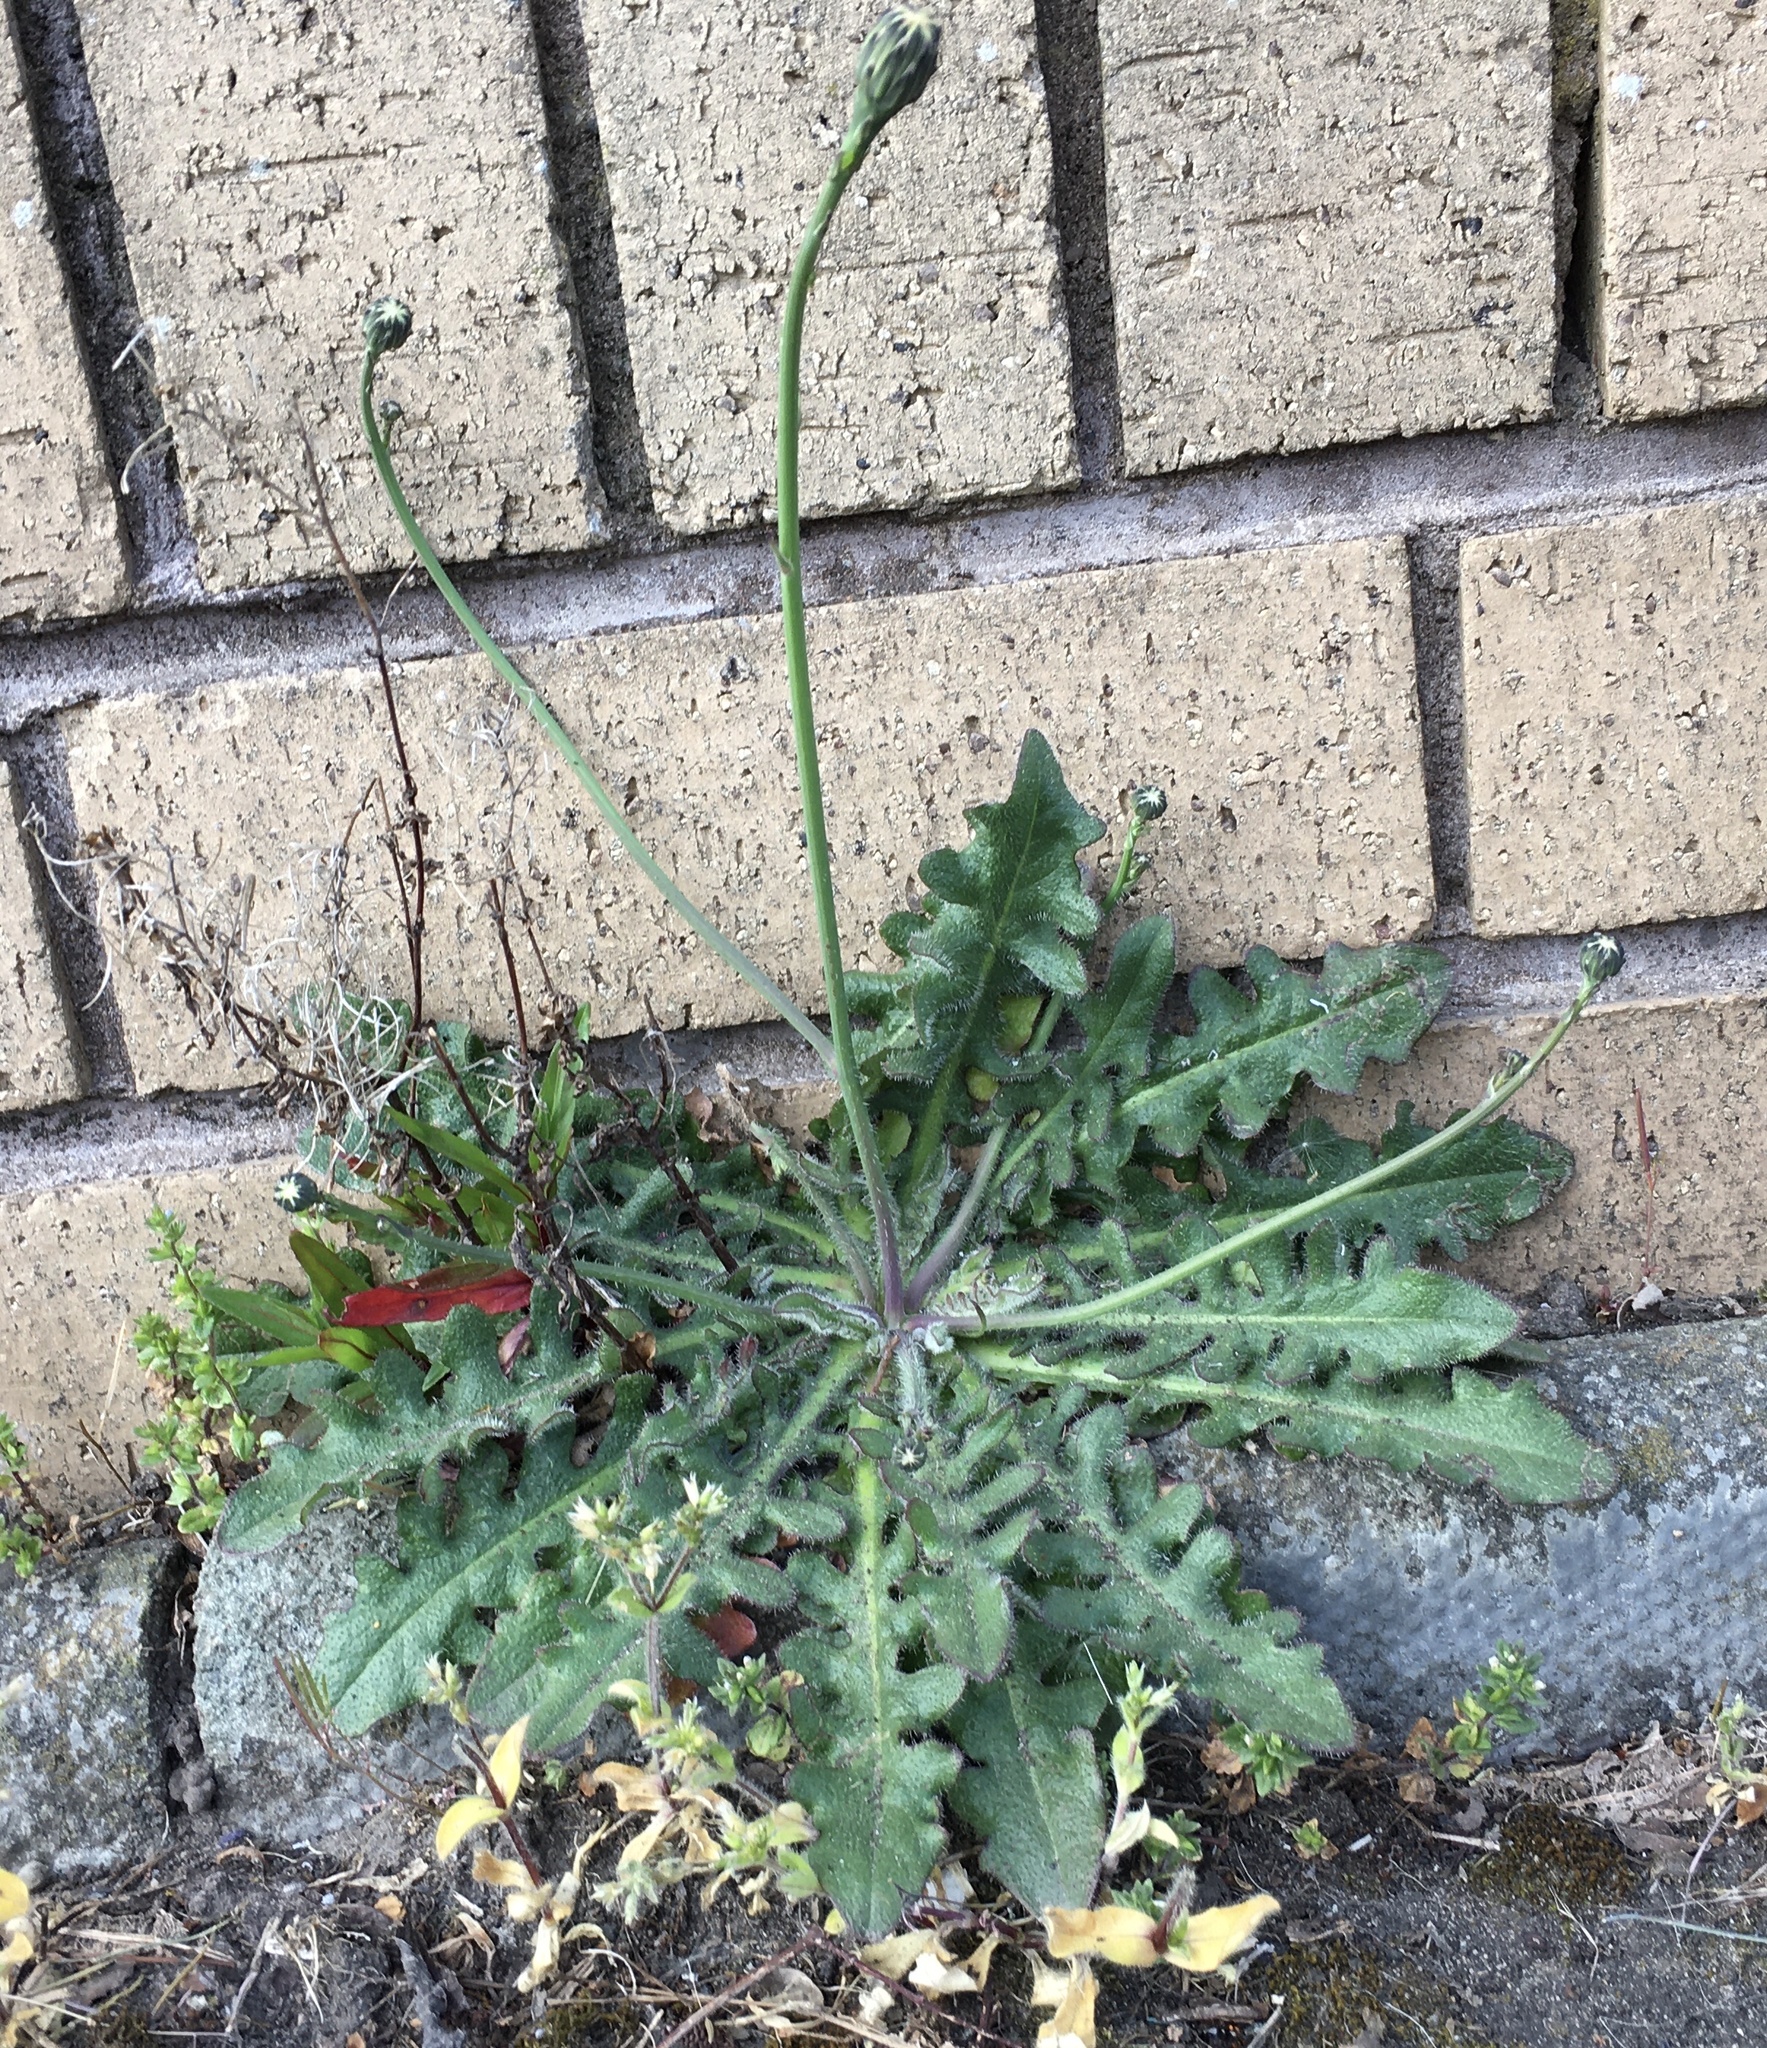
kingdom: Plantae
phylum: Tracheophyta
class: Magnoliopsida
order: Asterales
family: Asteraceae
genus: Hypochaeris
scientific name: Hypochaeris radicata
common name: Flatweed
